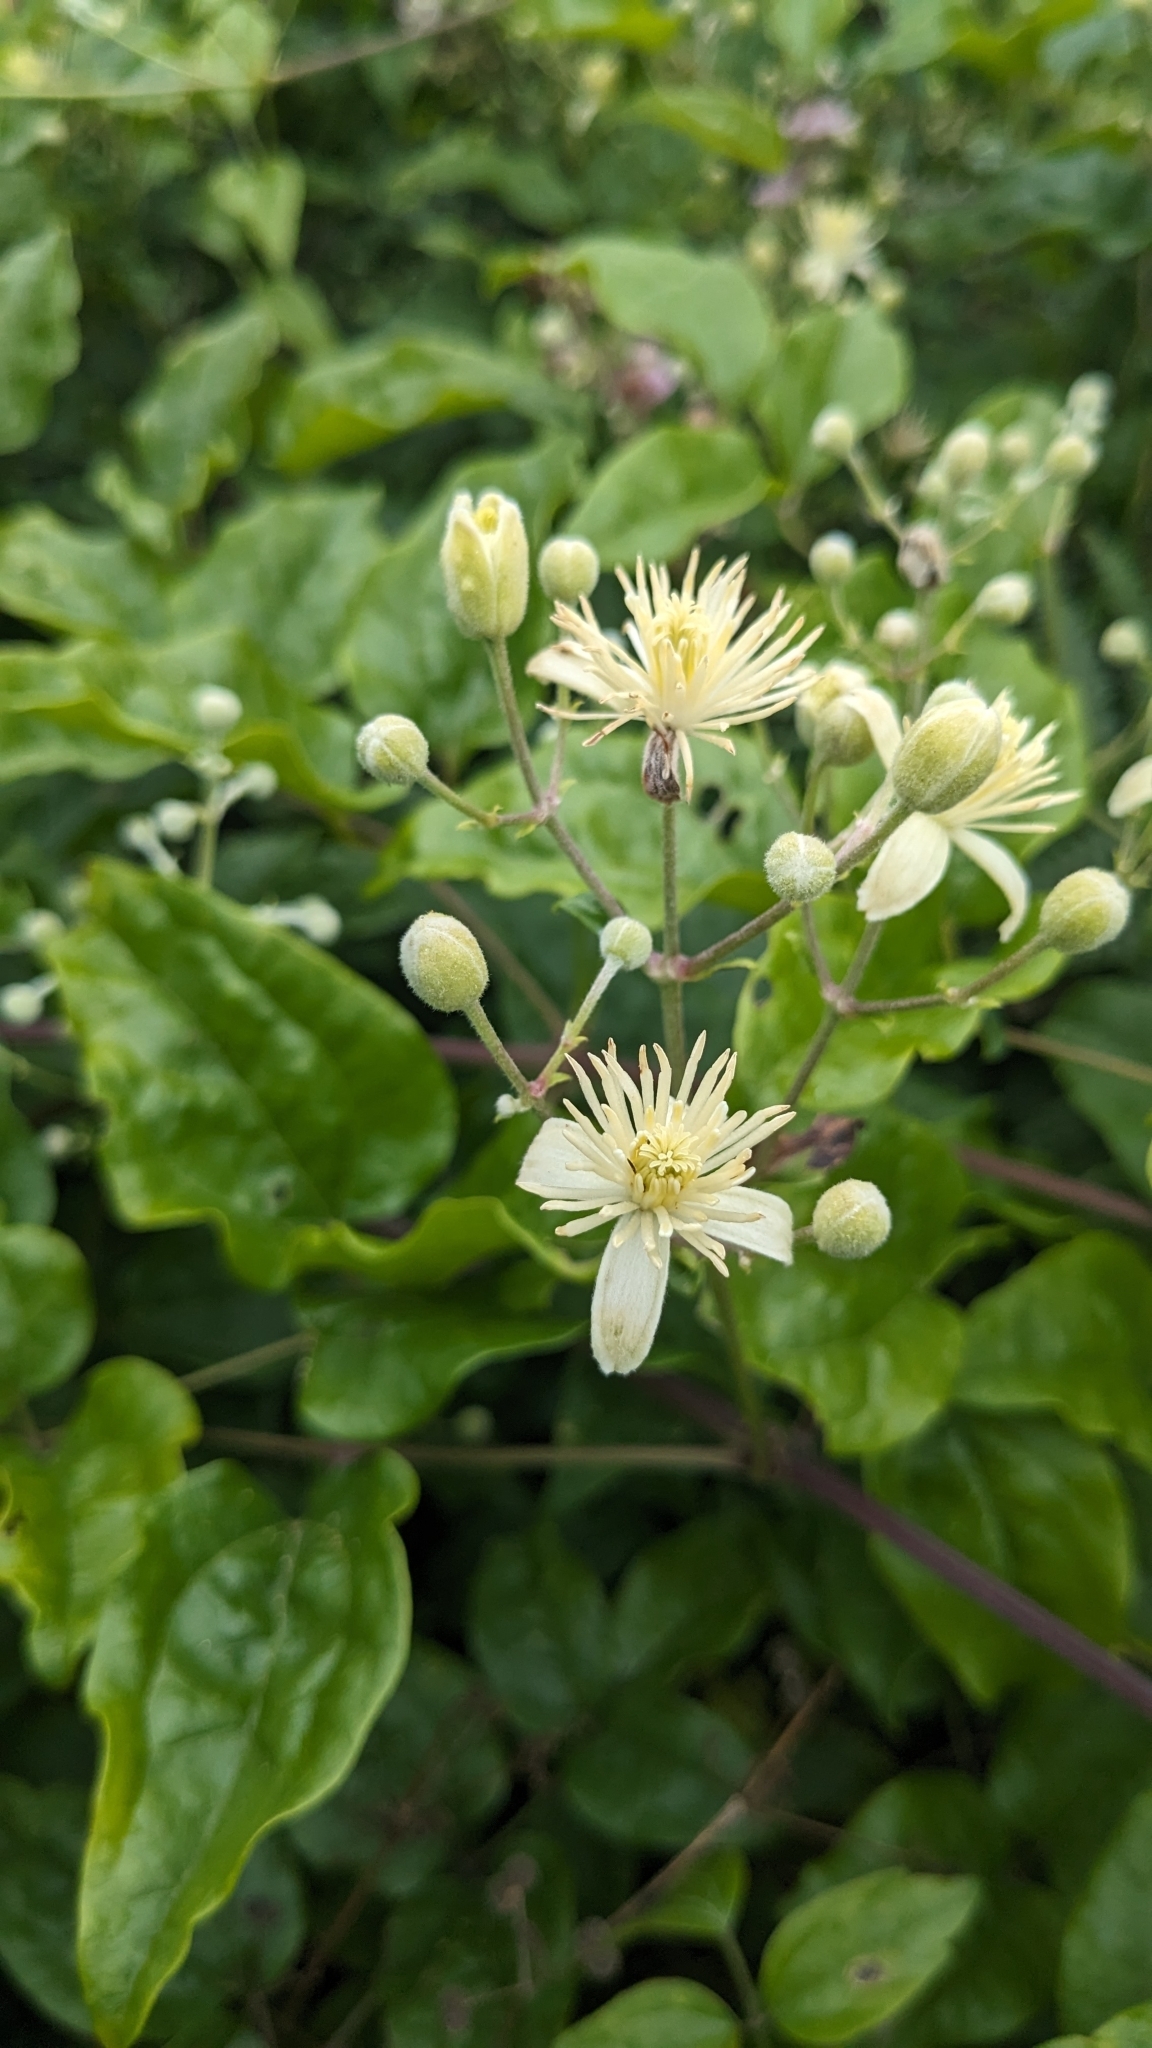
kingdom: Plantae
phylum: Tracheophyta
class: Magnoliopsida
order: Ranunculales
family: Ranunculaceae
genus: Clematis
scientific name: Clematis vitalba
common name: Evergreen clematis
